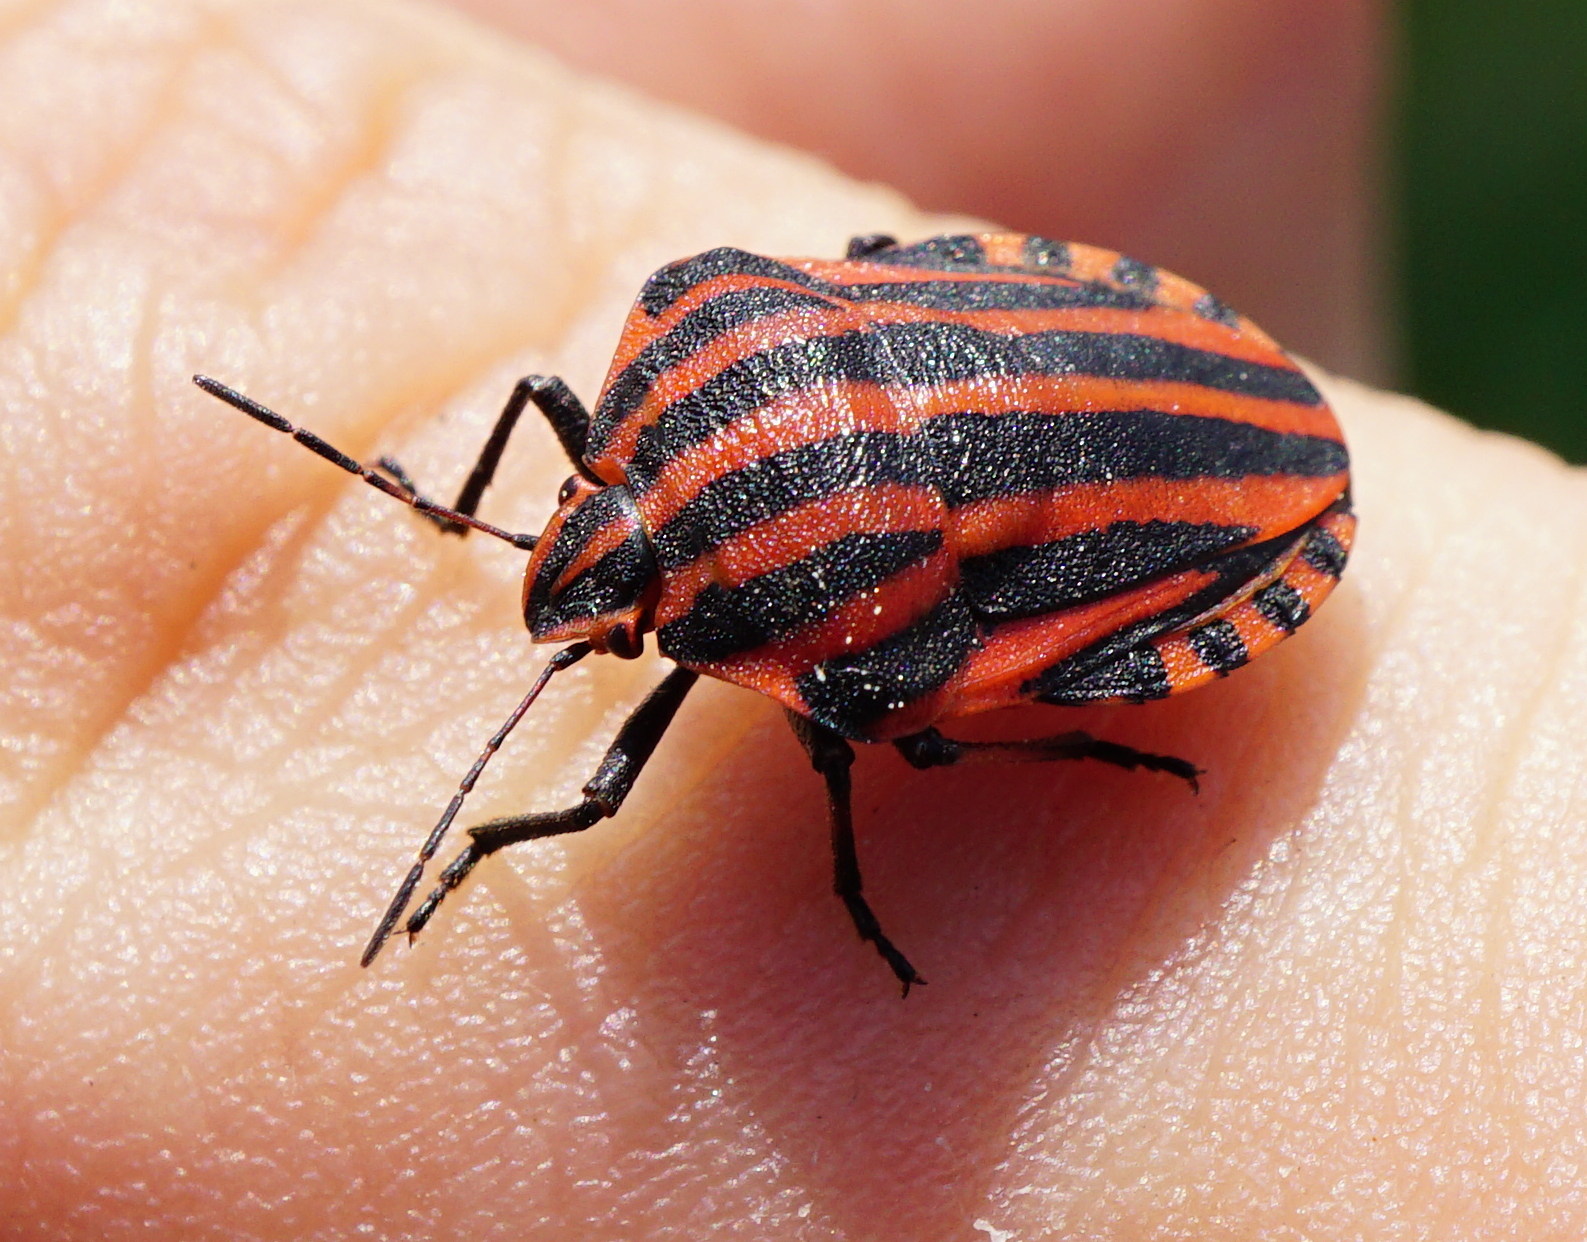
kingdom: Animalia
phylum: Arthropoda
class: Insecta
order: Hemiptera
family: Pentatomidae
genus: Graphosoma
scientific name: Graphosoma italicum
